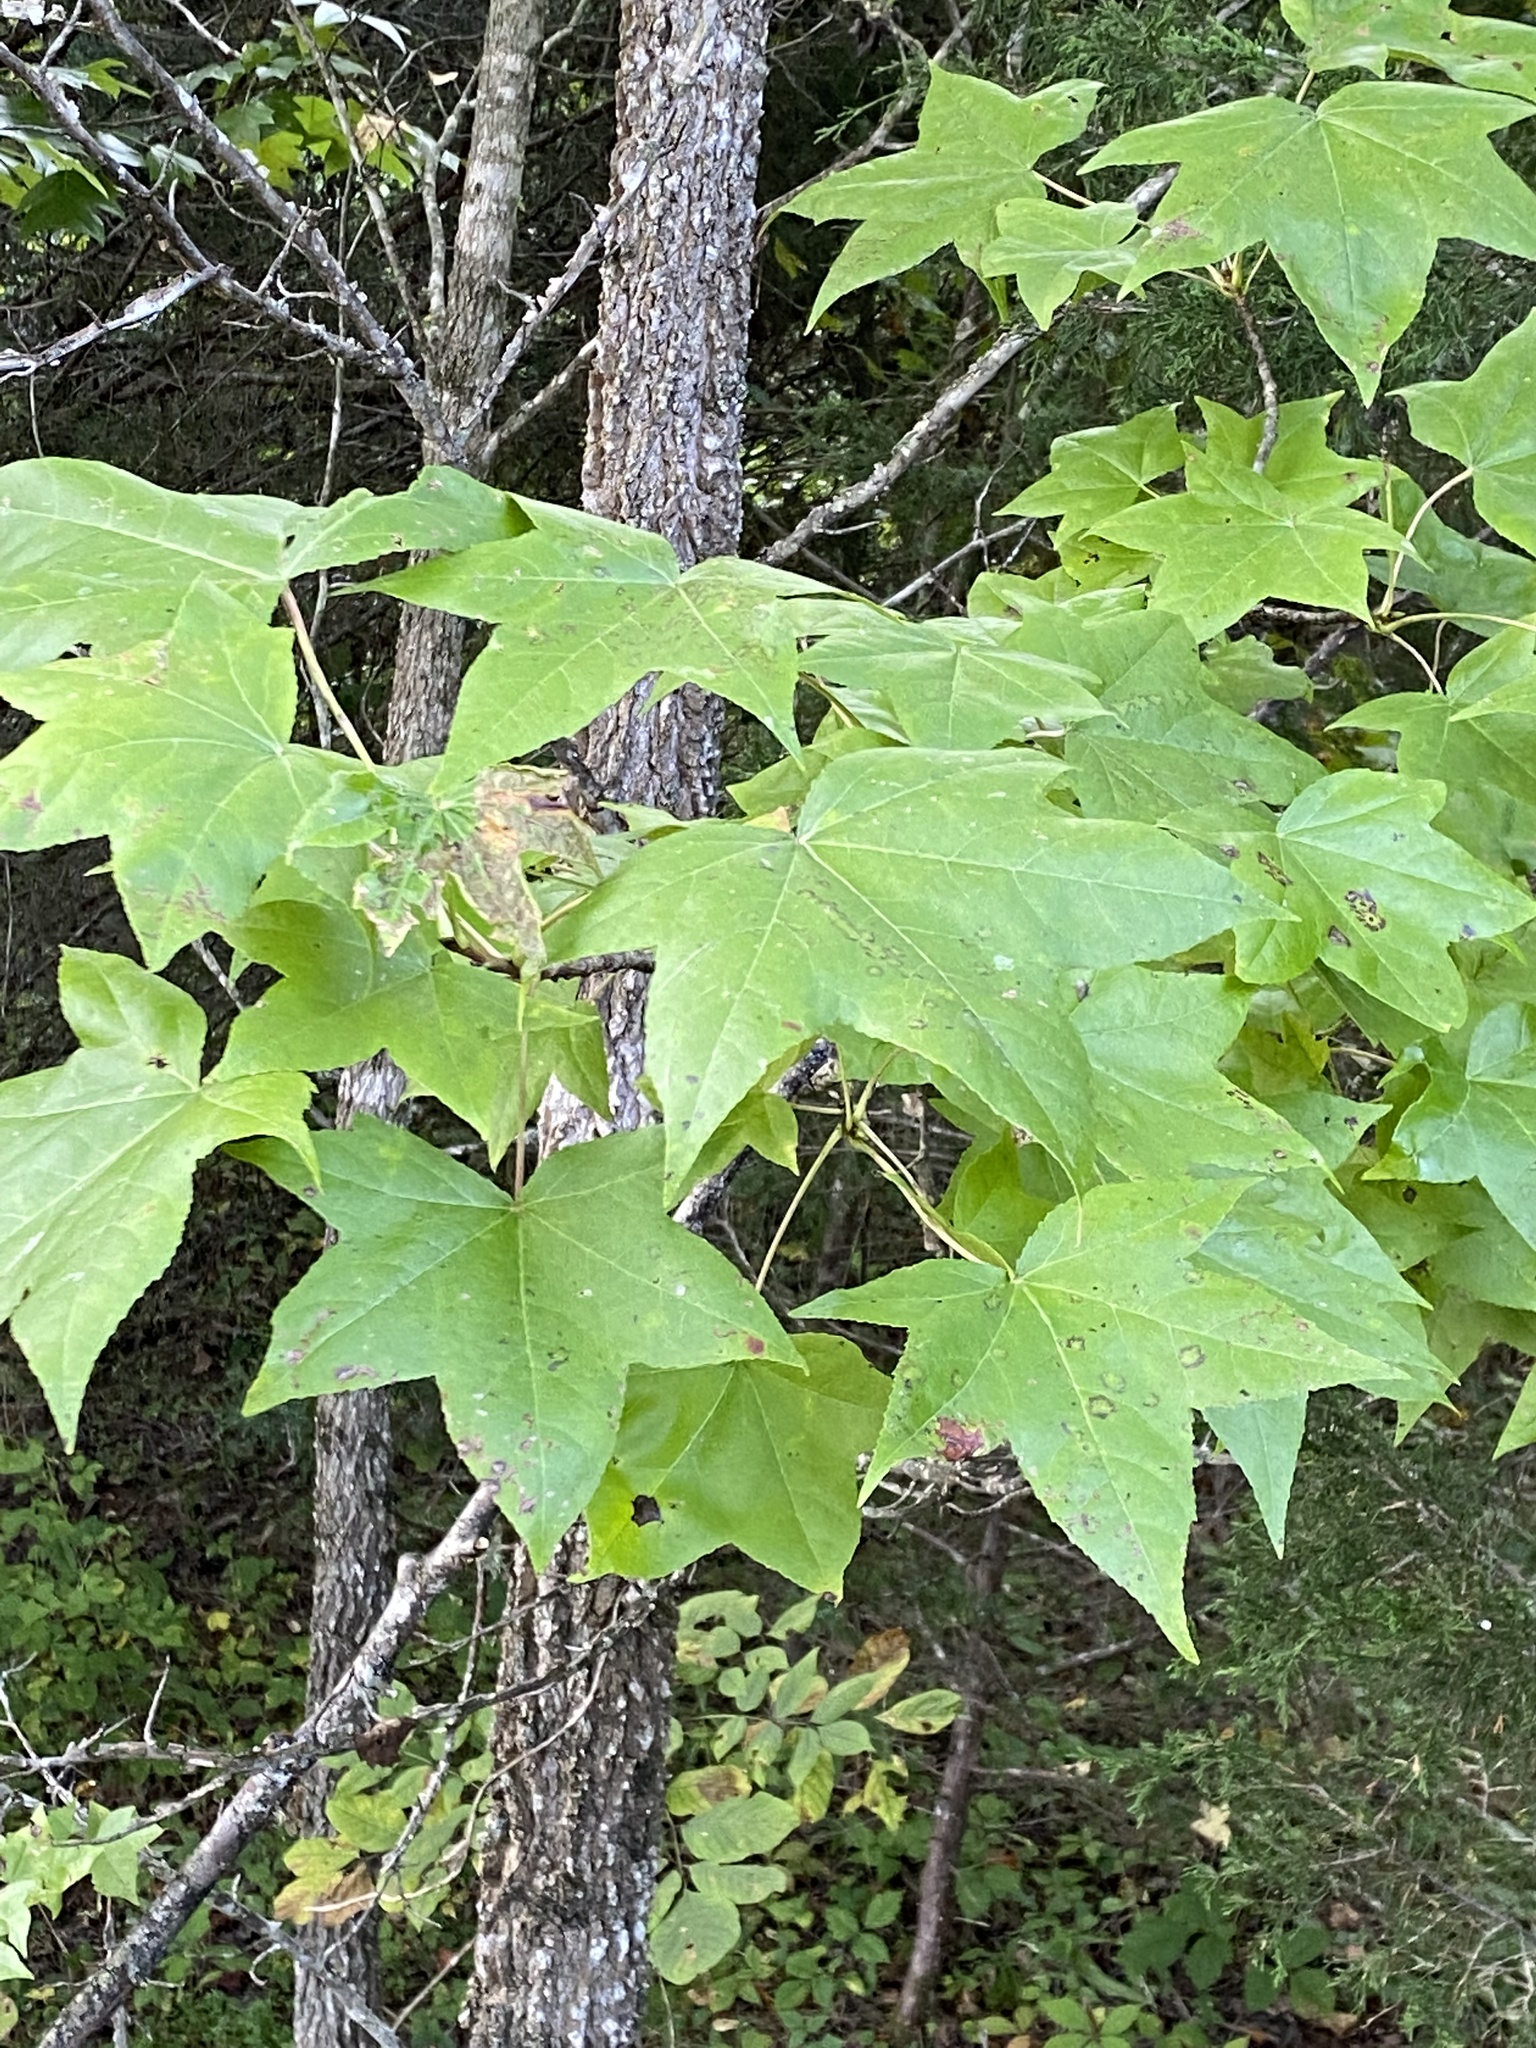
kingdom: Plantae
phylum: Tracheophyta
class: Magnoliopsida
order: Saxifragales
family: Altingiaceae
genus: Liquidambar
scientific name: Liquidambar styraciflua
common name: Sweet gum
